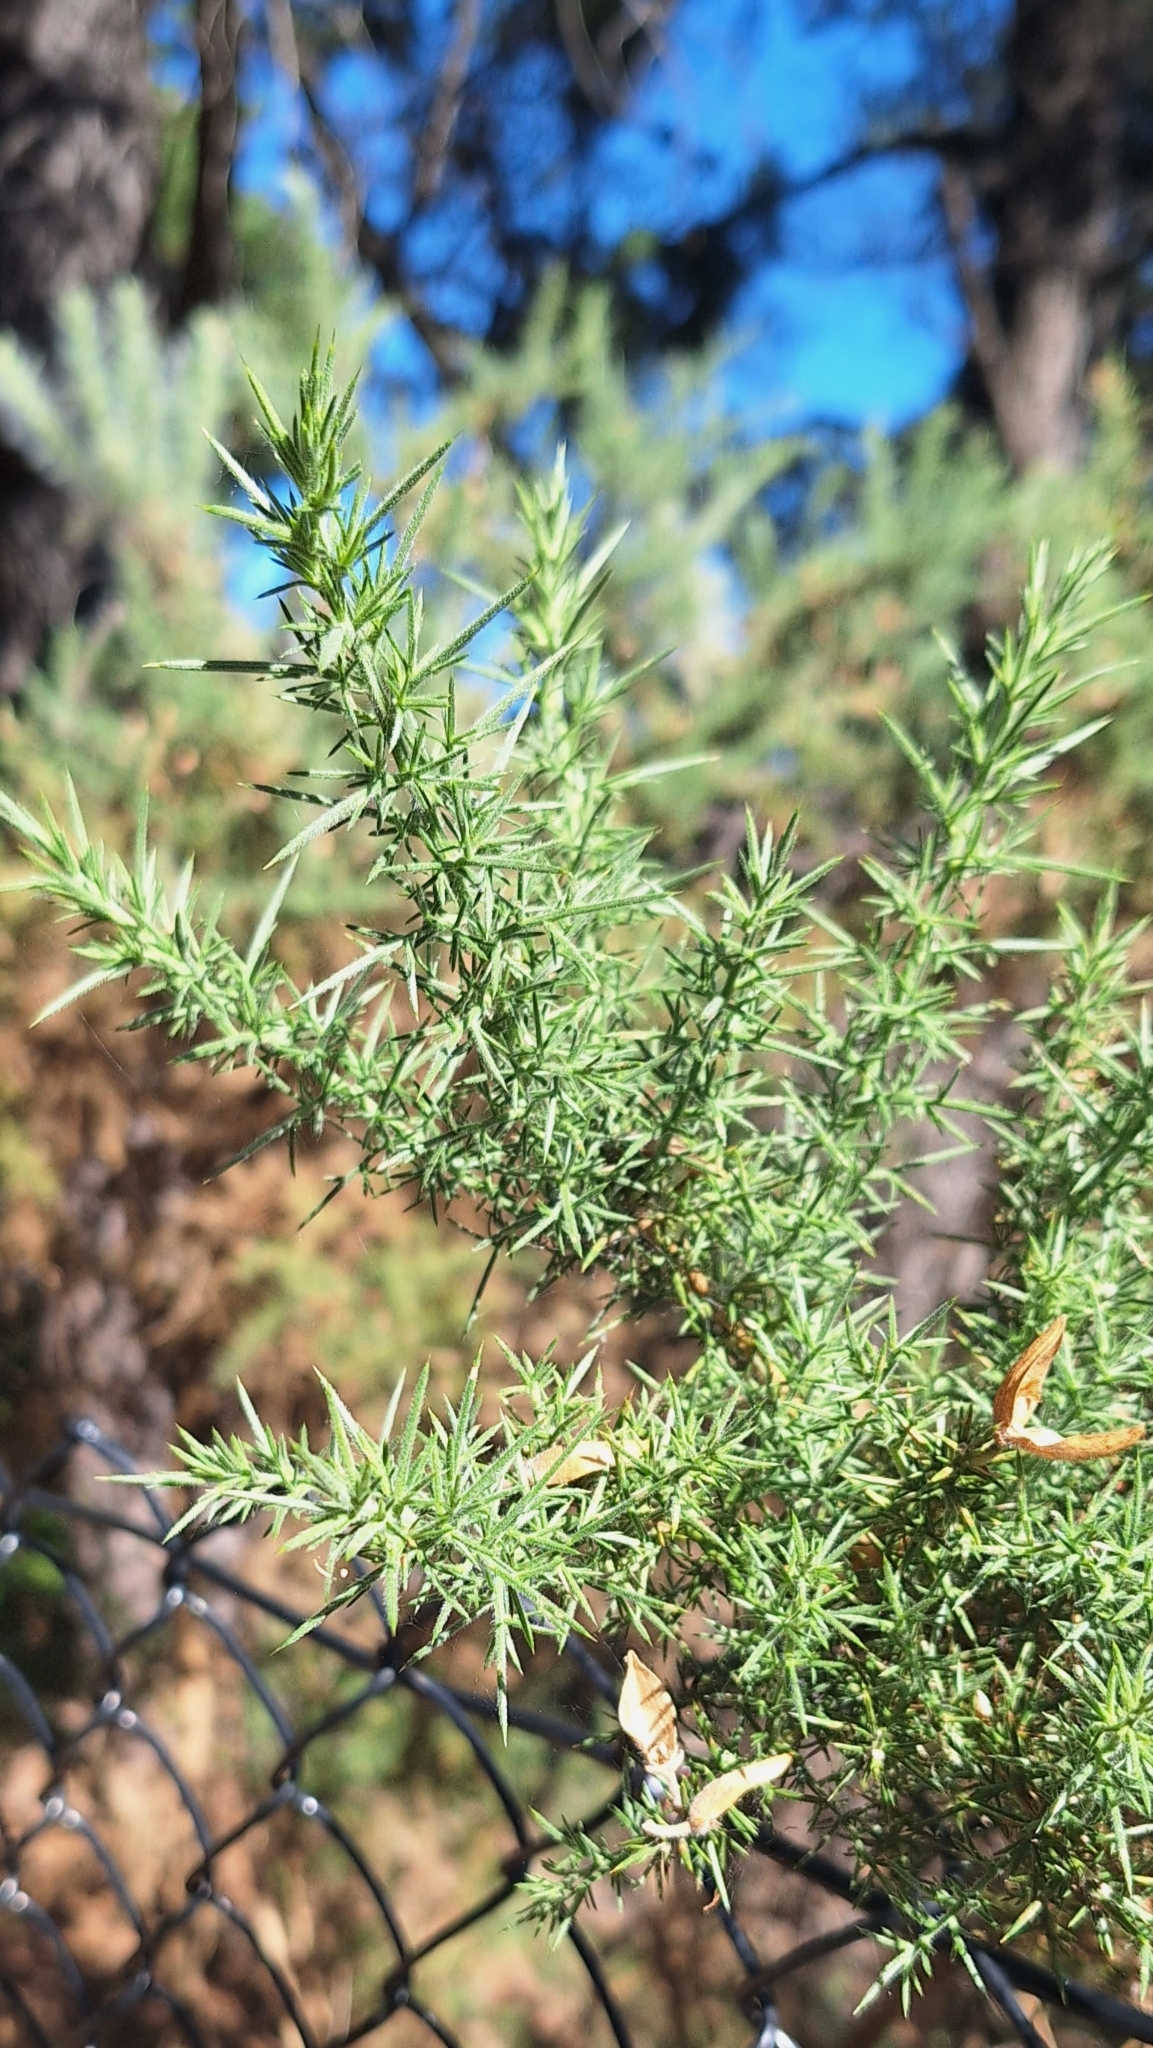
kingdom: Plantae
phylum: Tracheophyta
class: Magnoliopsida
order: Fabales
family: Fabaceae
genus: Ulex
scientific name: Ulex europaeus
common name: Common gorse
